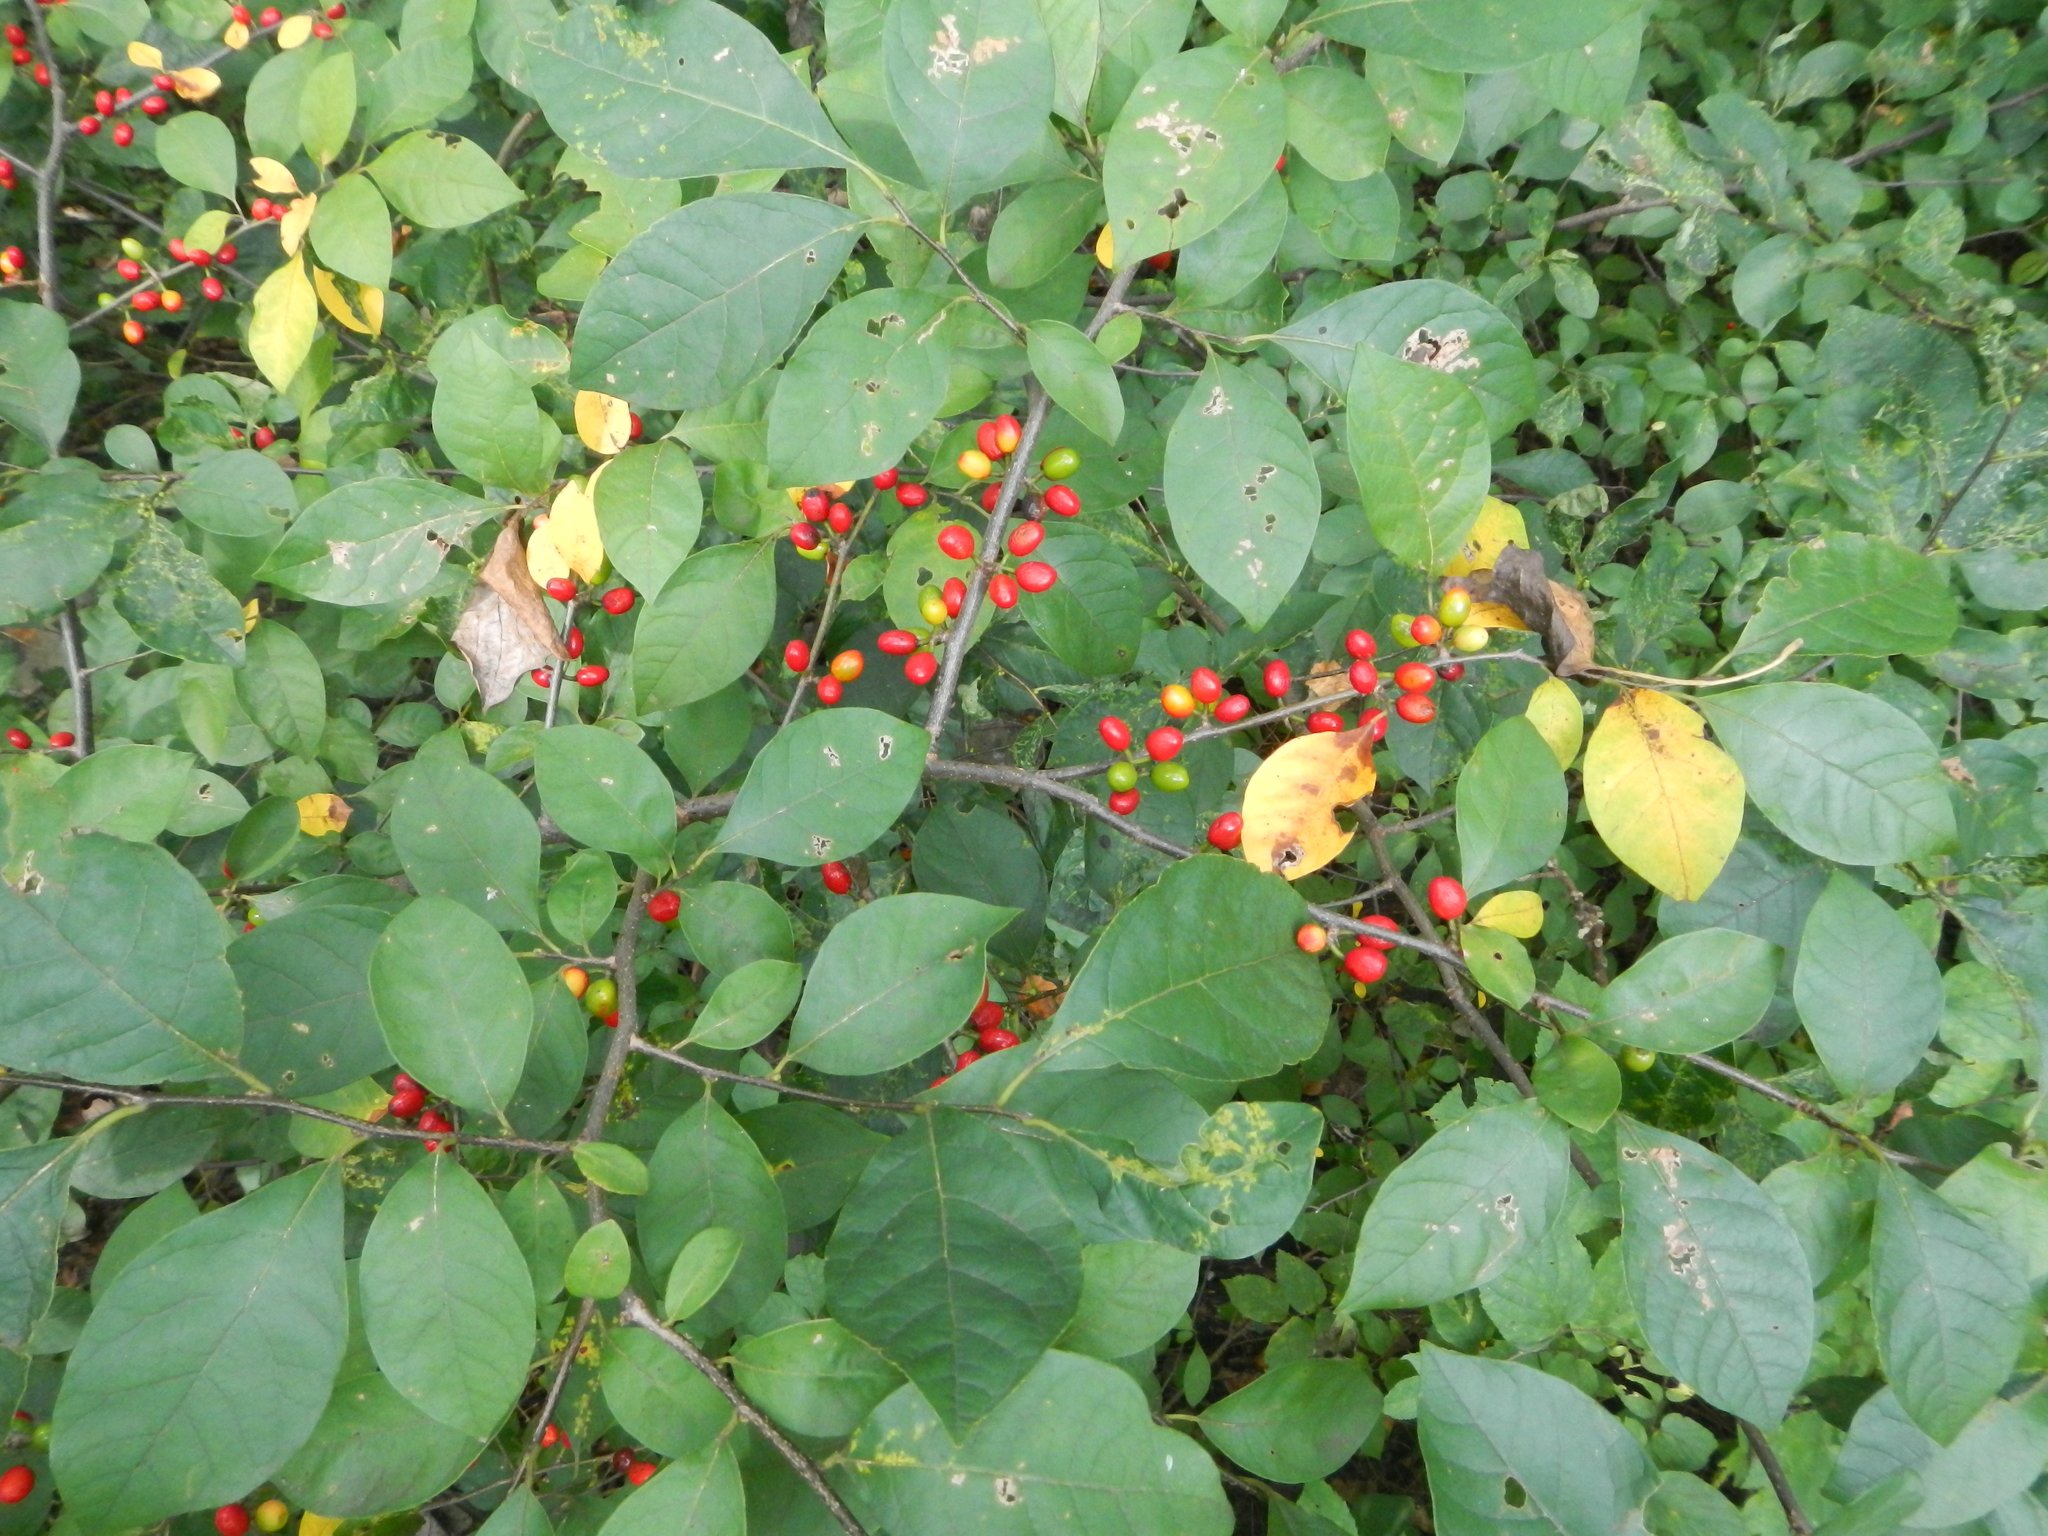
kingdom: Plantae
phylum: Tracheophyta
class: Magnoliopsida
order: Laurales
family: Lauraceae
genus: Lindera
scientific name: Lindera benzoin
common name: Spicebush
